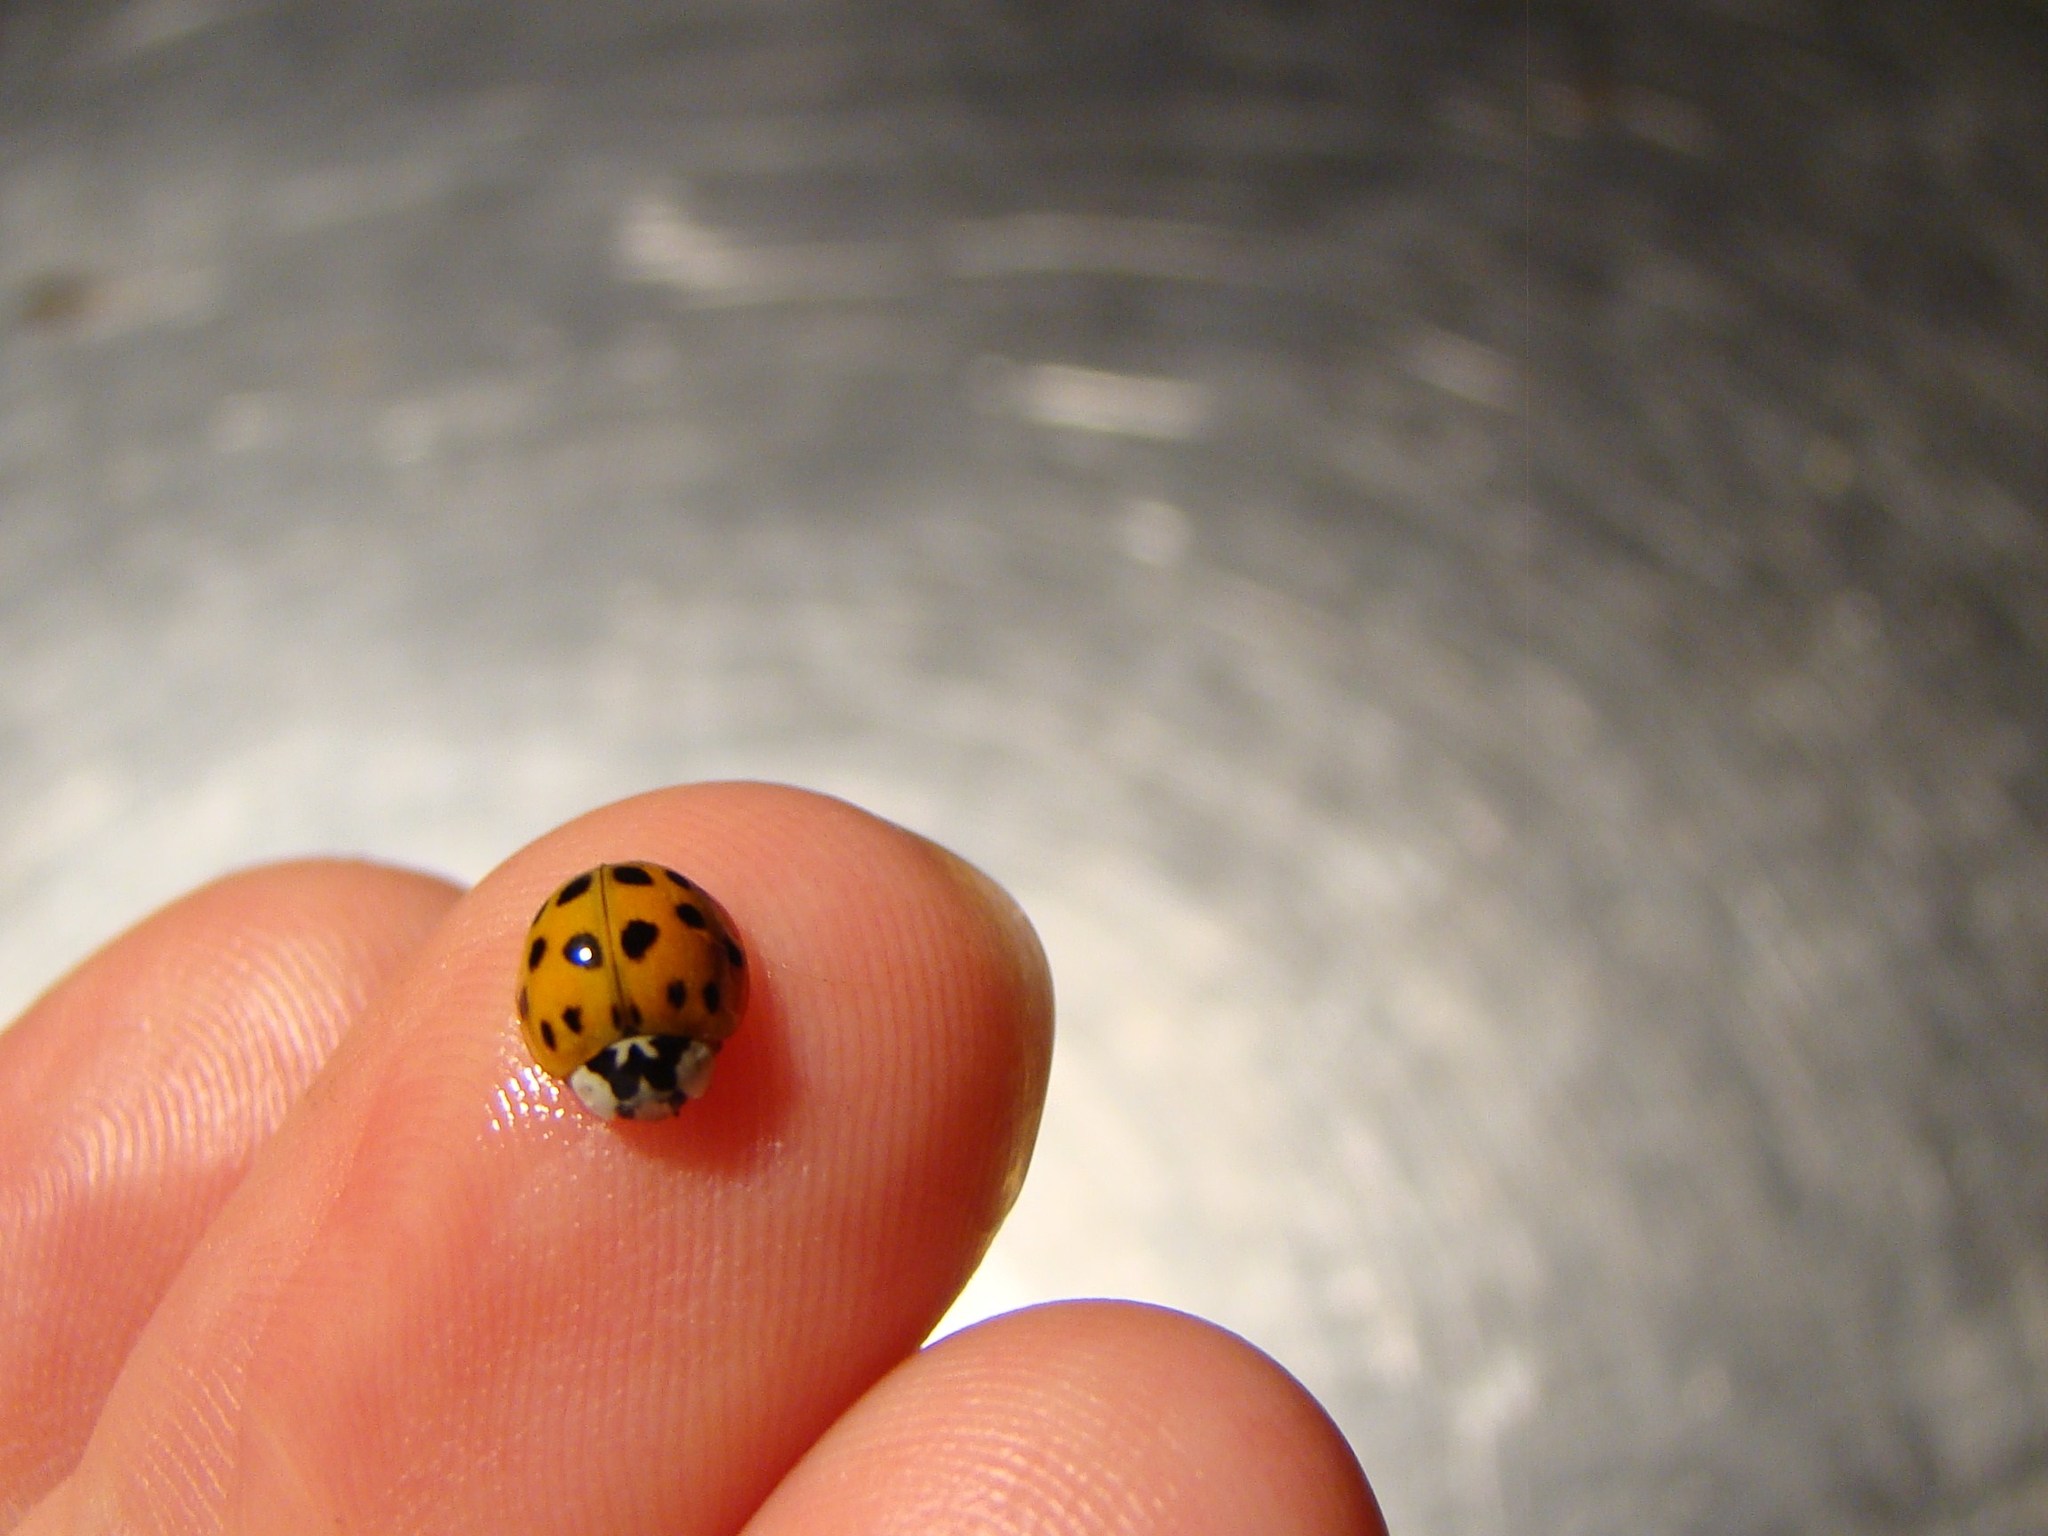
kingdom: Animalia
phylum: Arthropoda
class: Insecta
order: Coleoptera
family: Coccinellidae
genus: Harmonia
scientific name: Harmonia axyridis
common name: Harlequin ladybird
